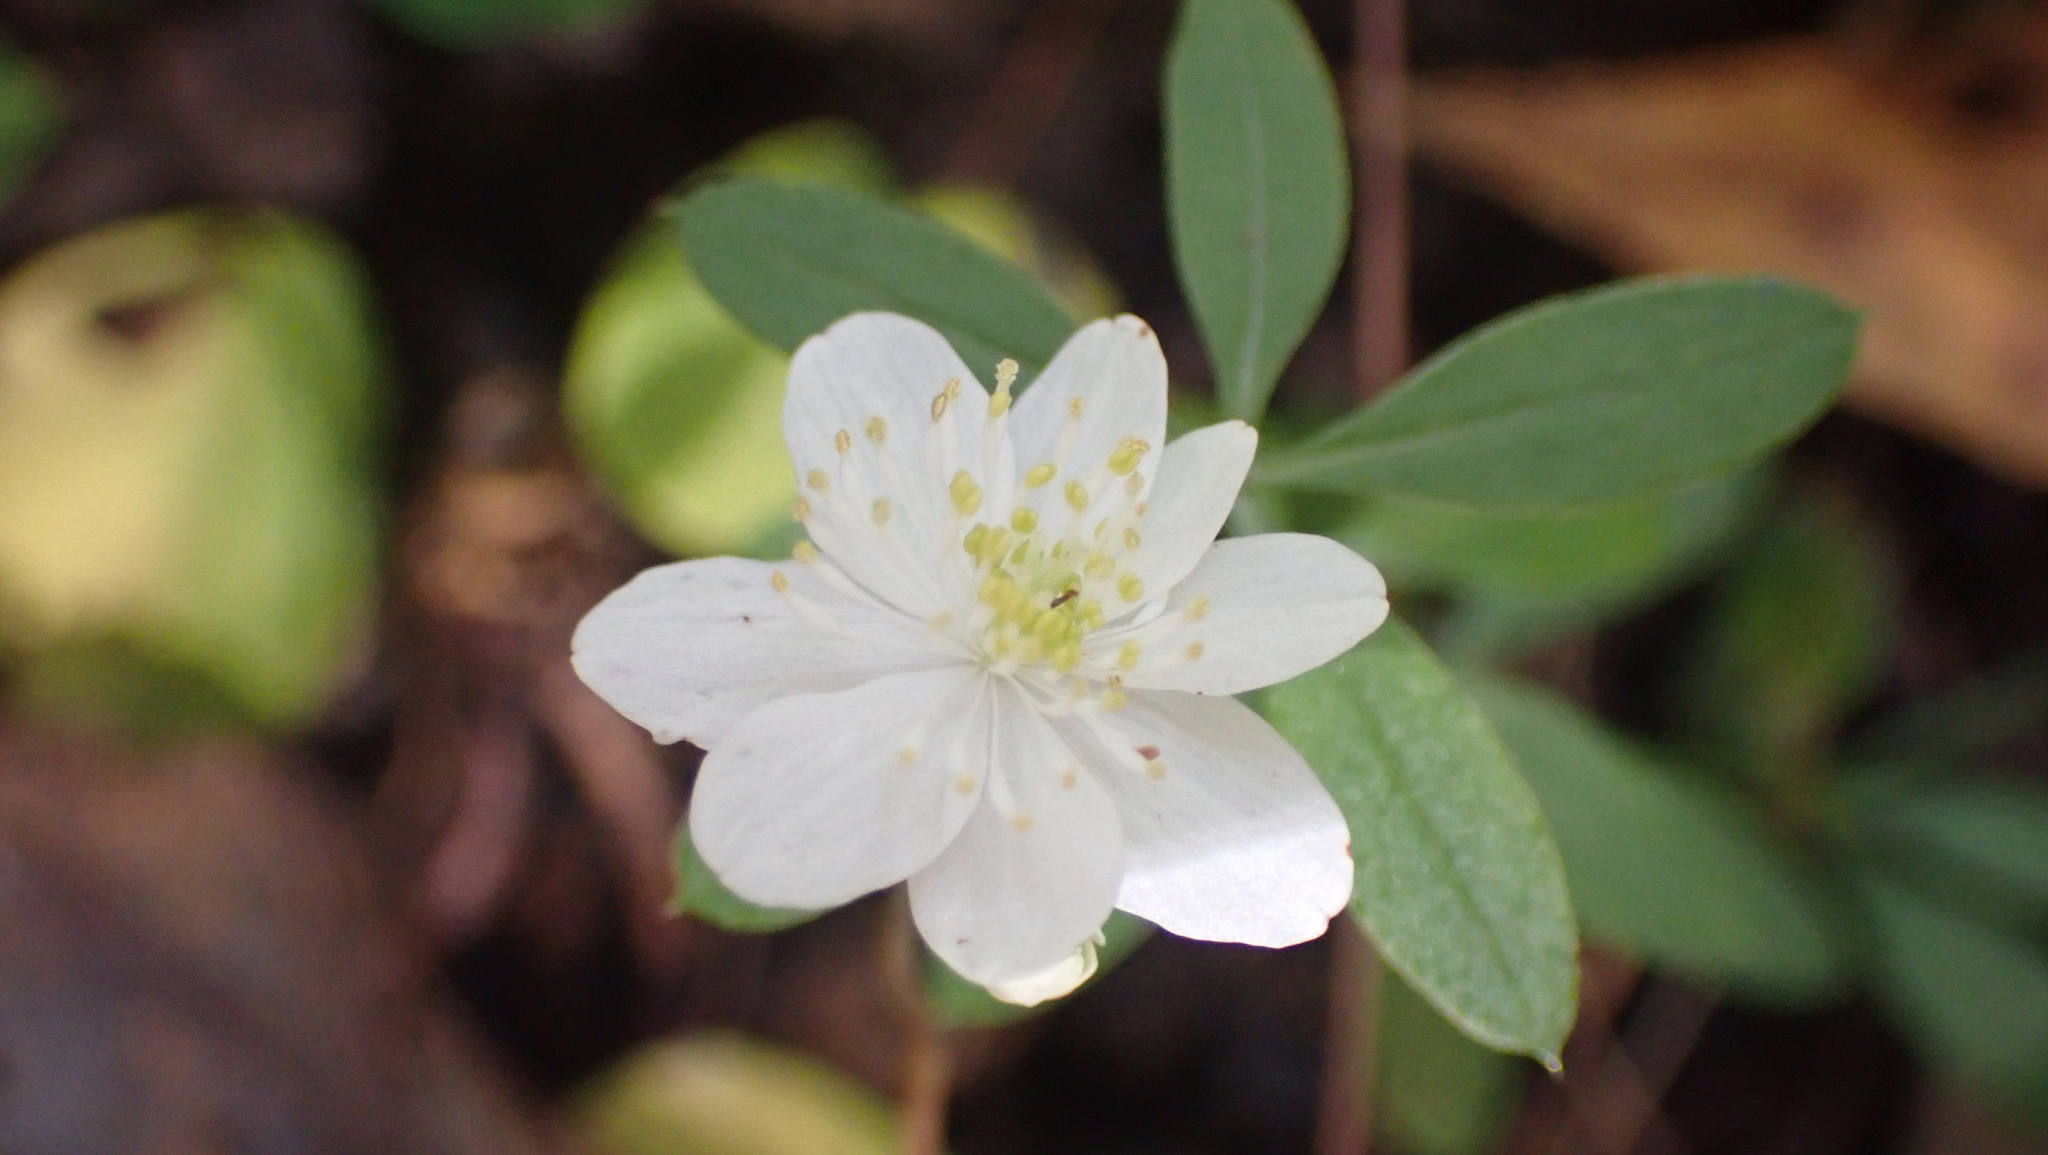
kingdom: Plantae
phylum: Tracheophyta
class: Magnoliopsida
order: Ranunculales
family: Ranunculaceae
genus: Thalictrum
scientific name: Thalictrum thalictroides
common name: Rue-anemone
